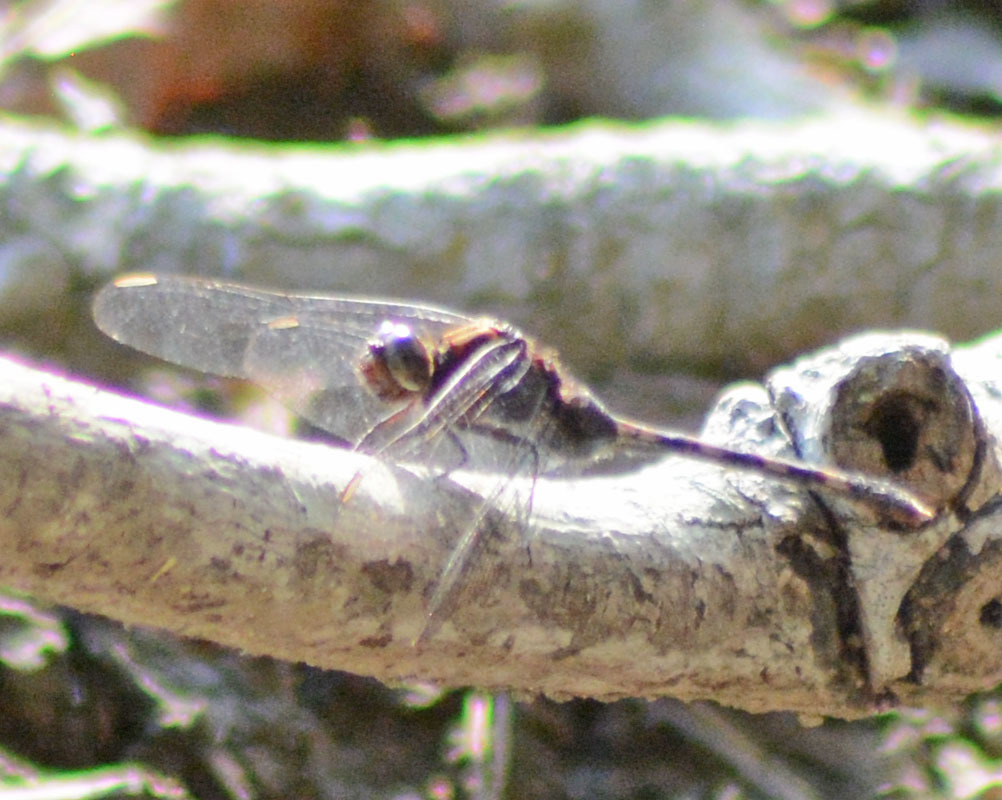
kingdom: Animalia
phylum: Arthropoda
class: Insecta
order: Odonata
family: Libellulidae
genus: Erythemis
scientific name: Erythemis plebeja
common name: Pin-tailed pondhawk
